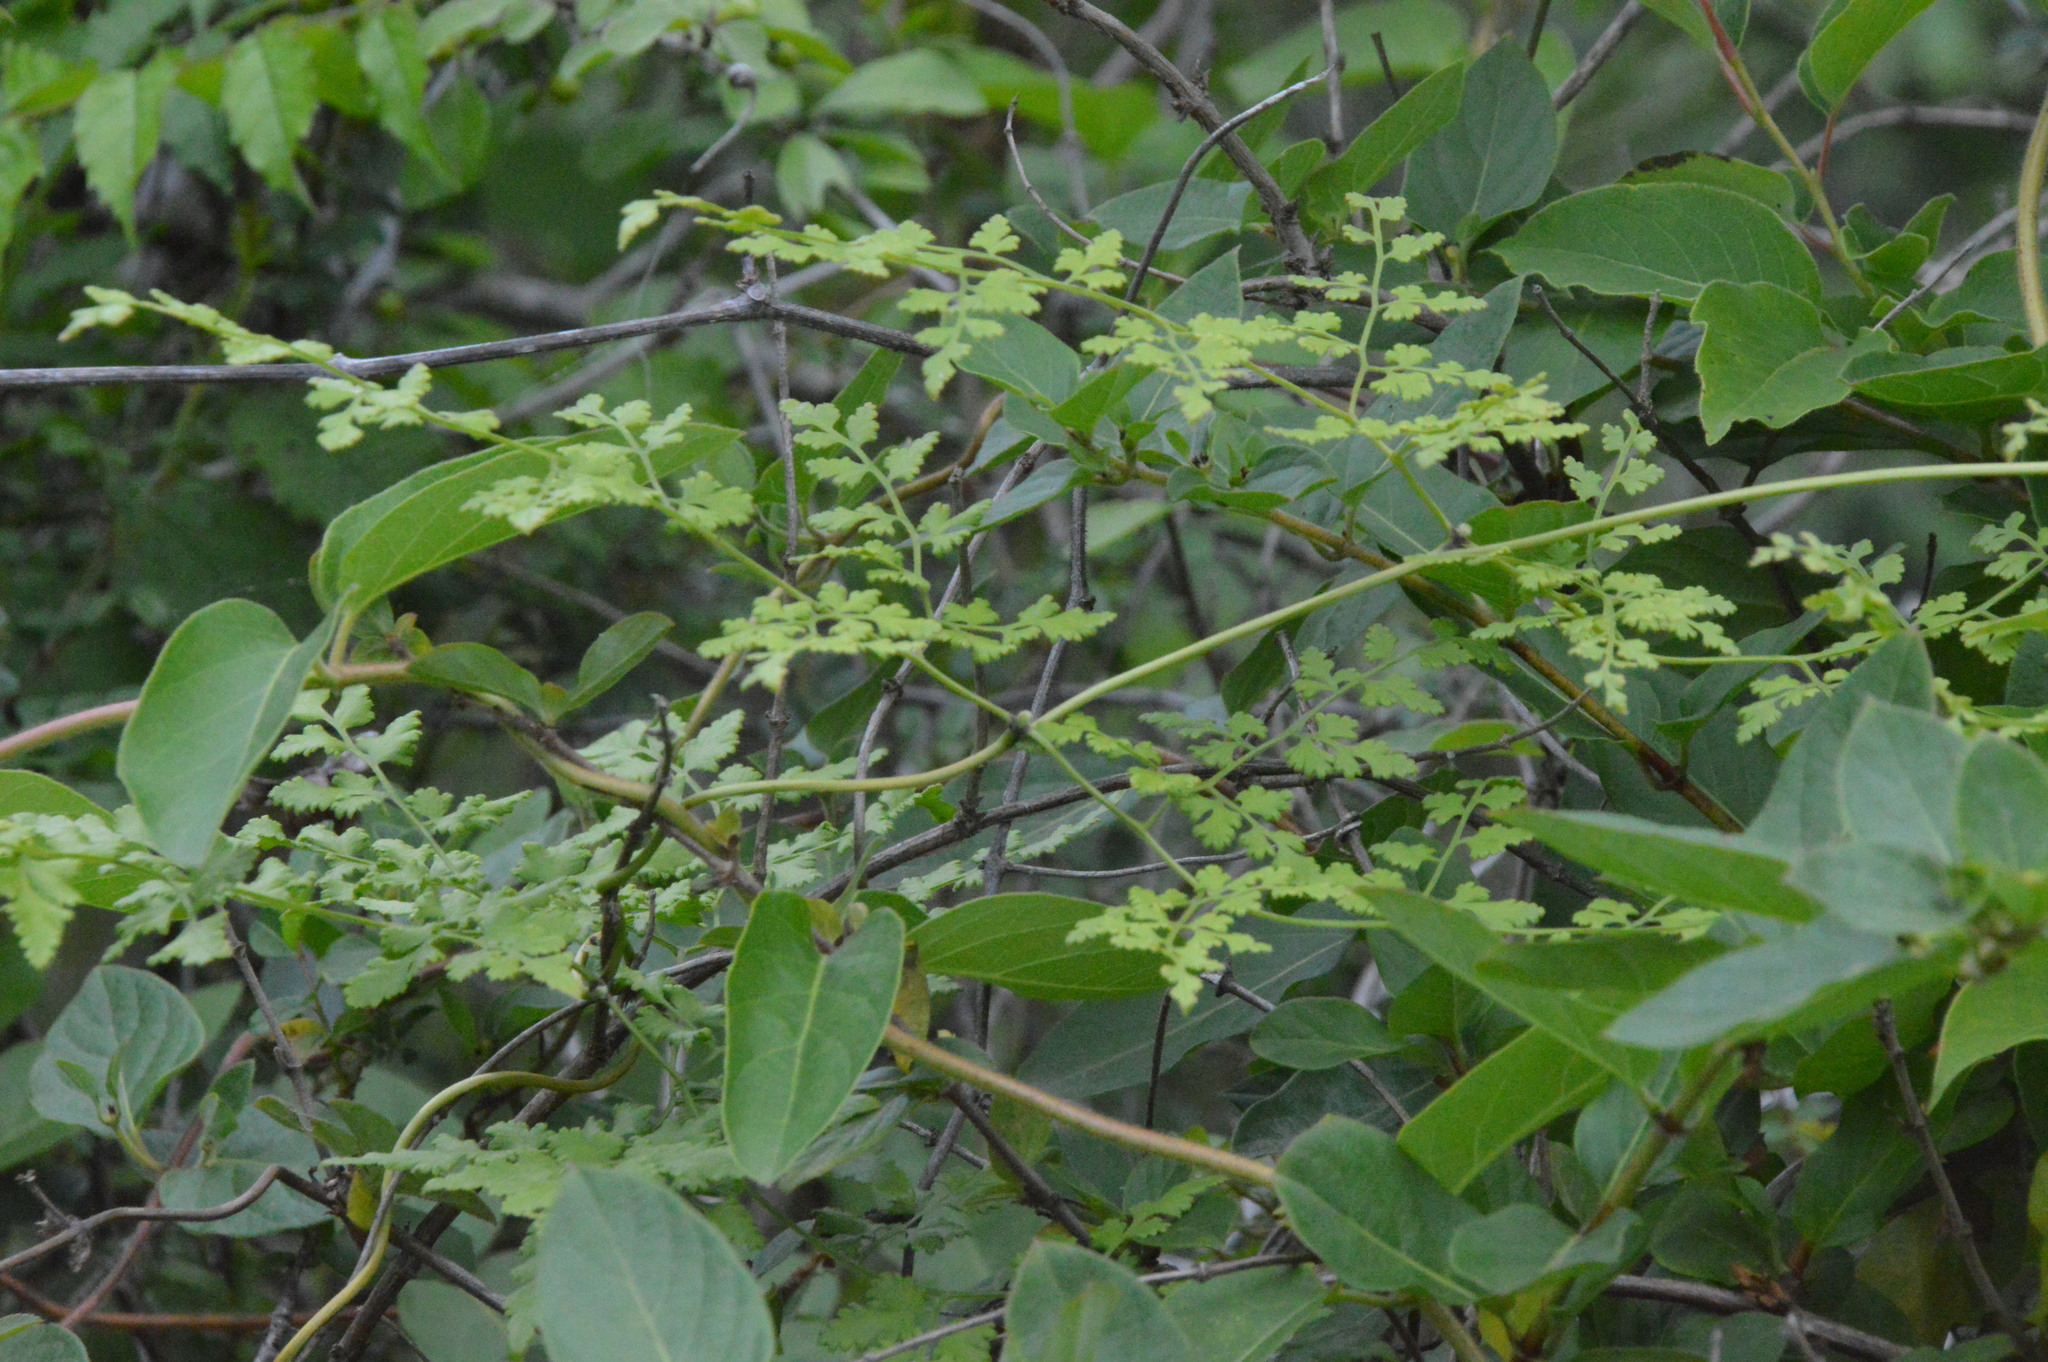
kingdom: Plantae
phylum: Tracheophyta
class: Polypodiopsida
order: Schizaeales
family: Lygodiaceae
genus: Lygodium
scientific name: Lygodium japonicum
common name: Japanese climbing fern
